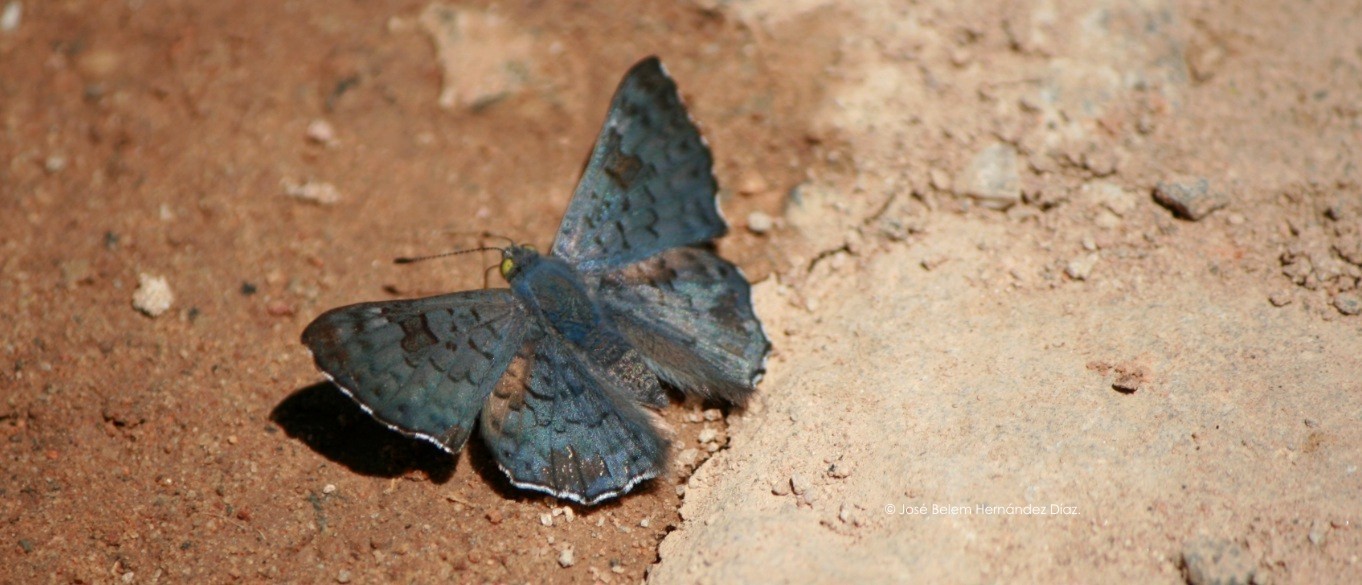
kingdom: Animalia
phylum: Arthropoda
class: Insecta
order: Lepidoptera
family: Riodinidae
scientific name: Riodinidae
